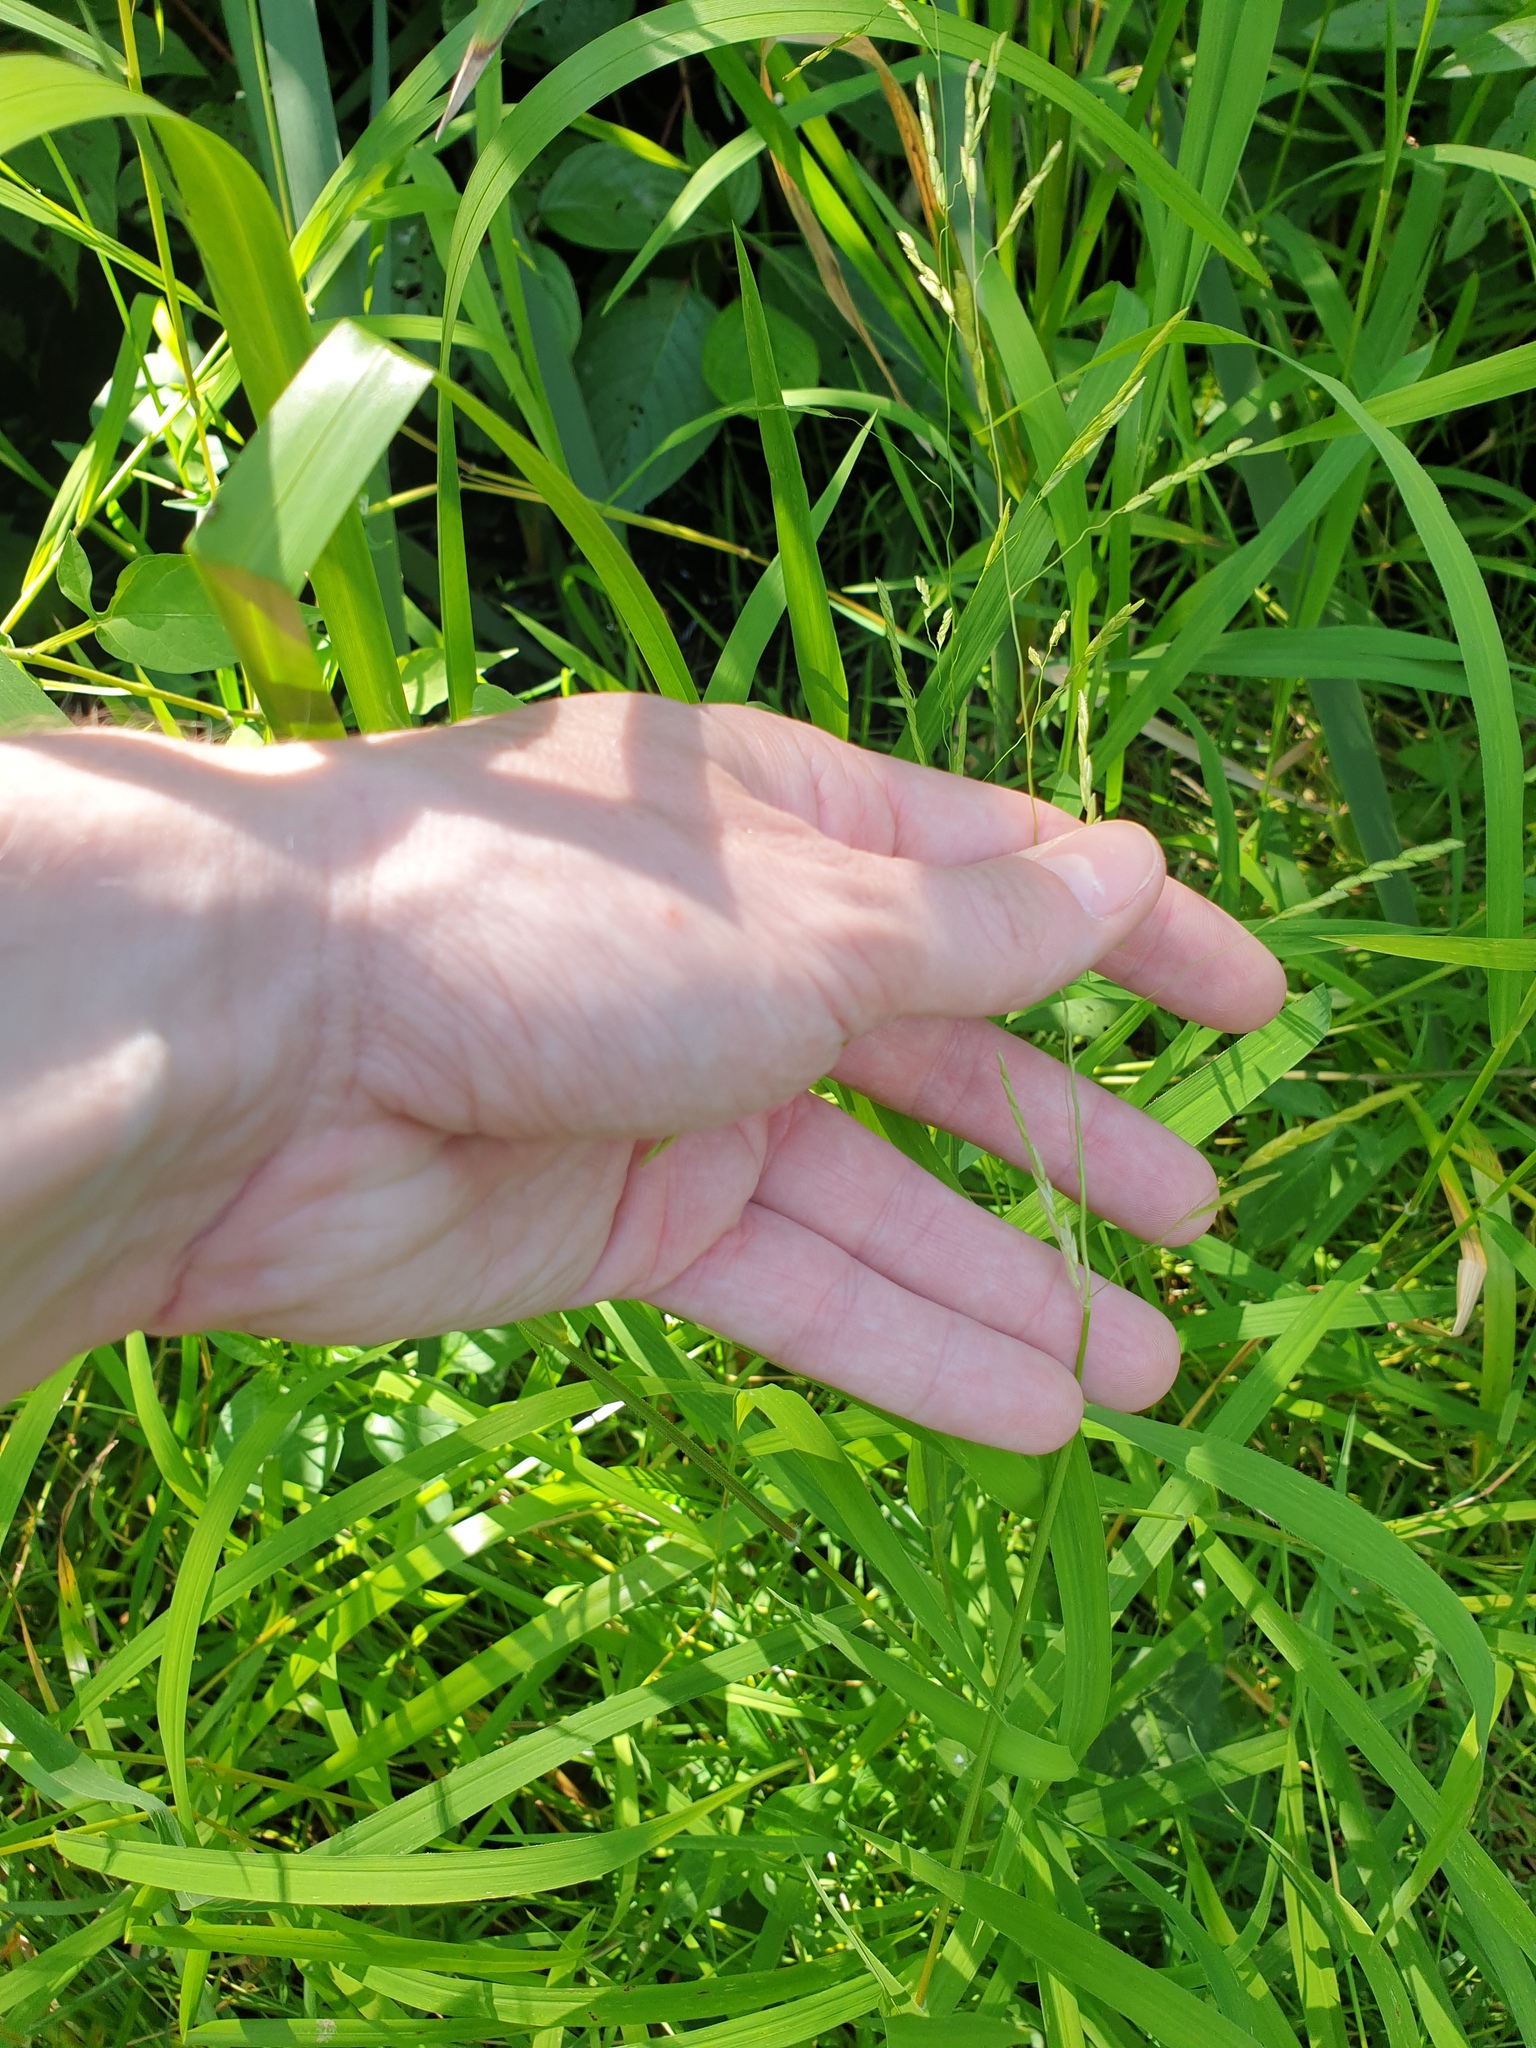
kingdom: Plantae
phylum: Tracheophyta
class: Liliopsida
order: Poales
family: Poaceae
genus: Leersia
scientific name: Leersia oryzoides
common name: Cut-grass
